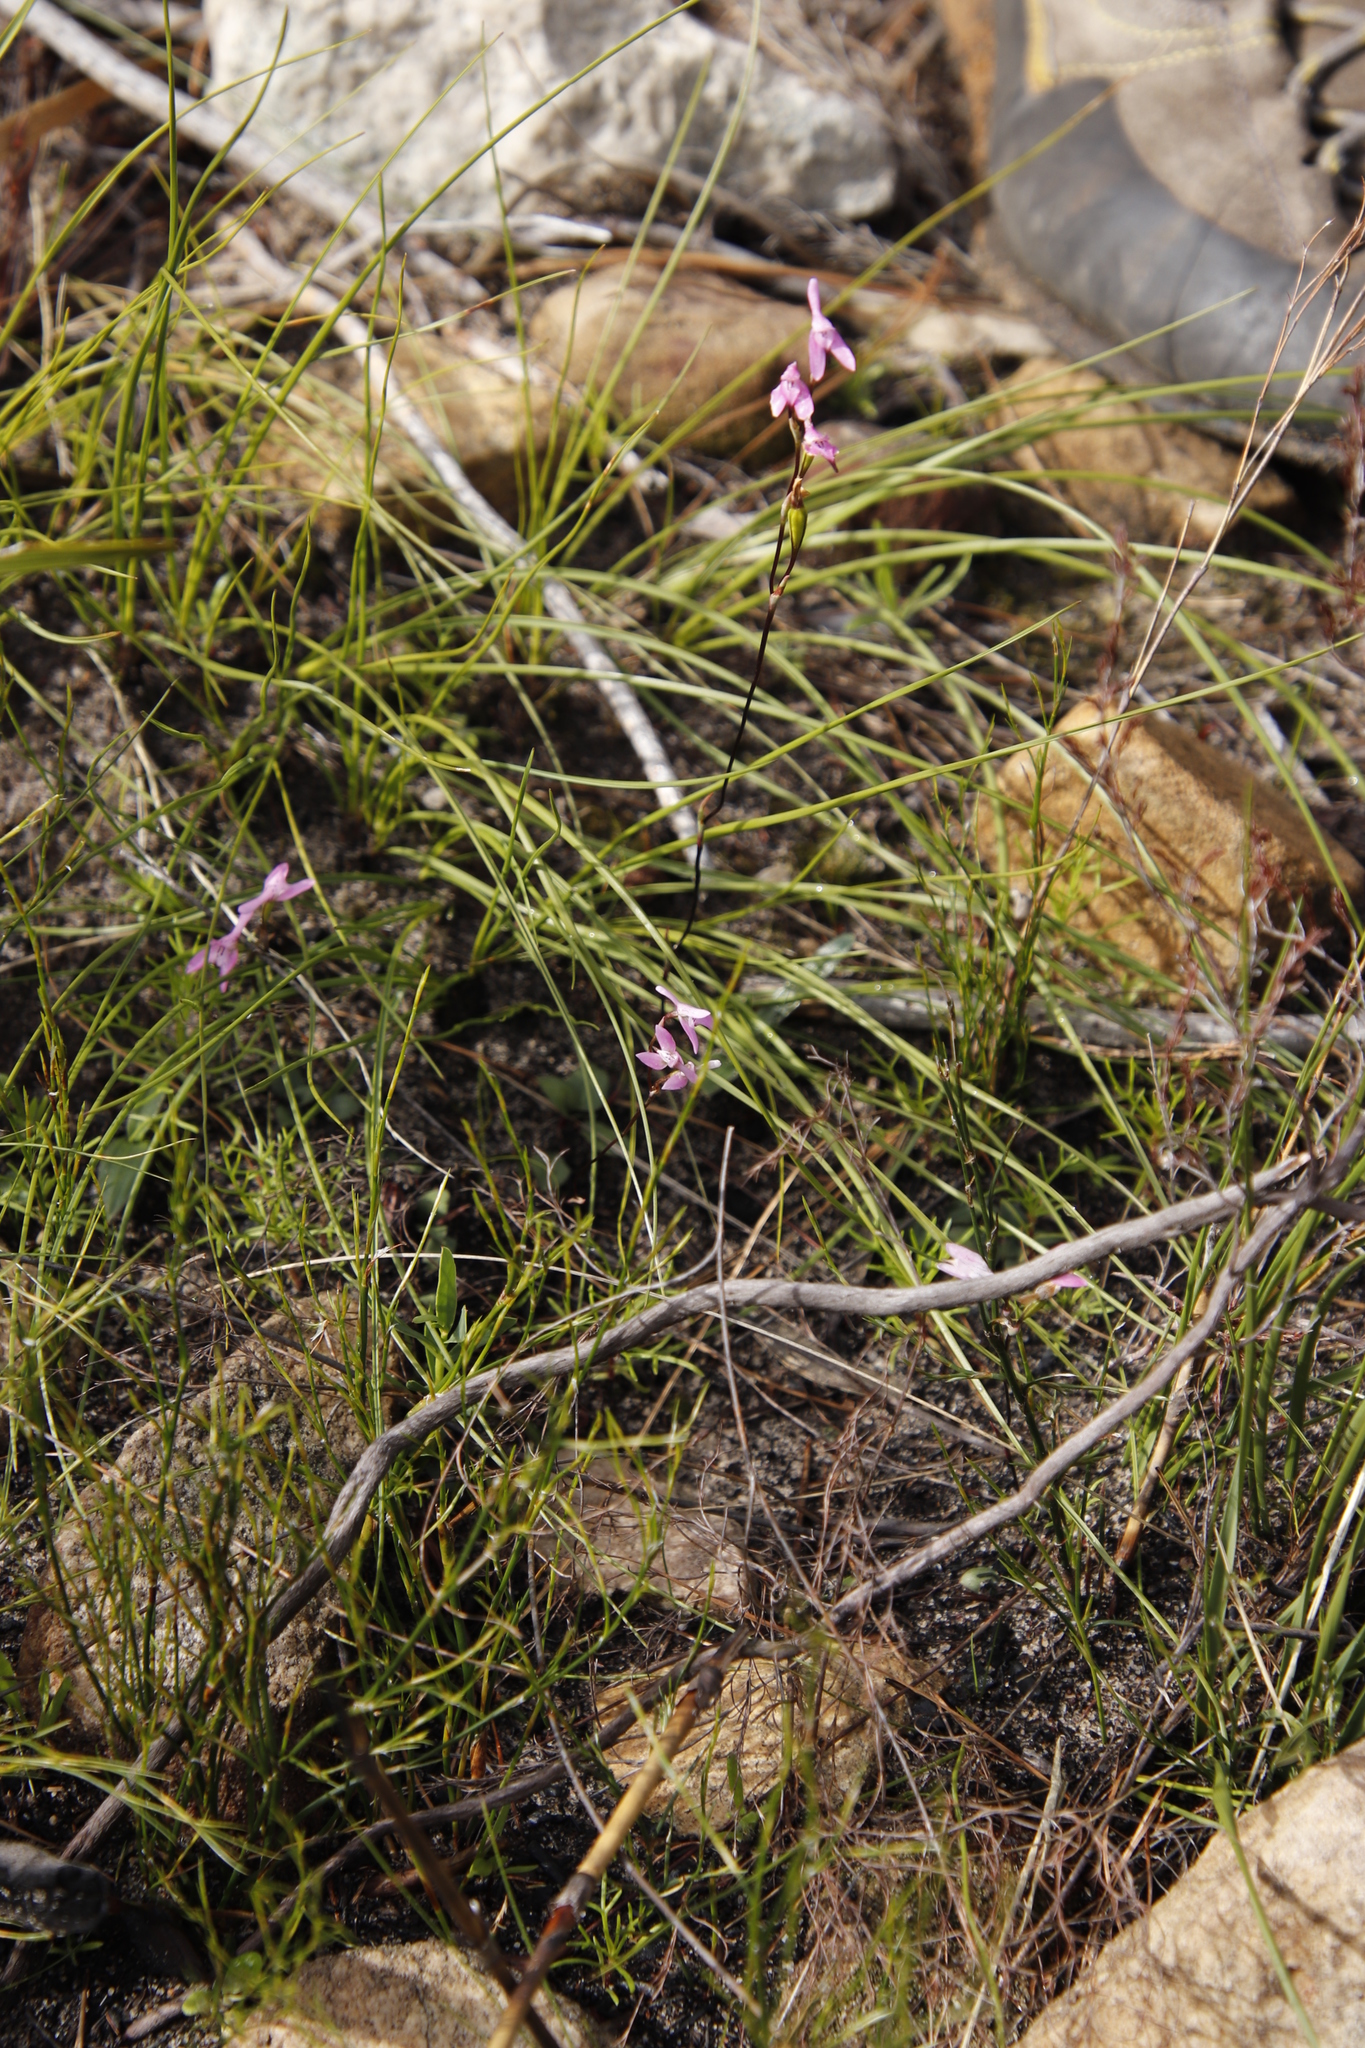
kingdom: Plantae
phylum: Tracheophyta
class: Liliopsida
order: Asparagales
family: Orchidaceae
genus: Disa
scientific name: Disa obliqua
